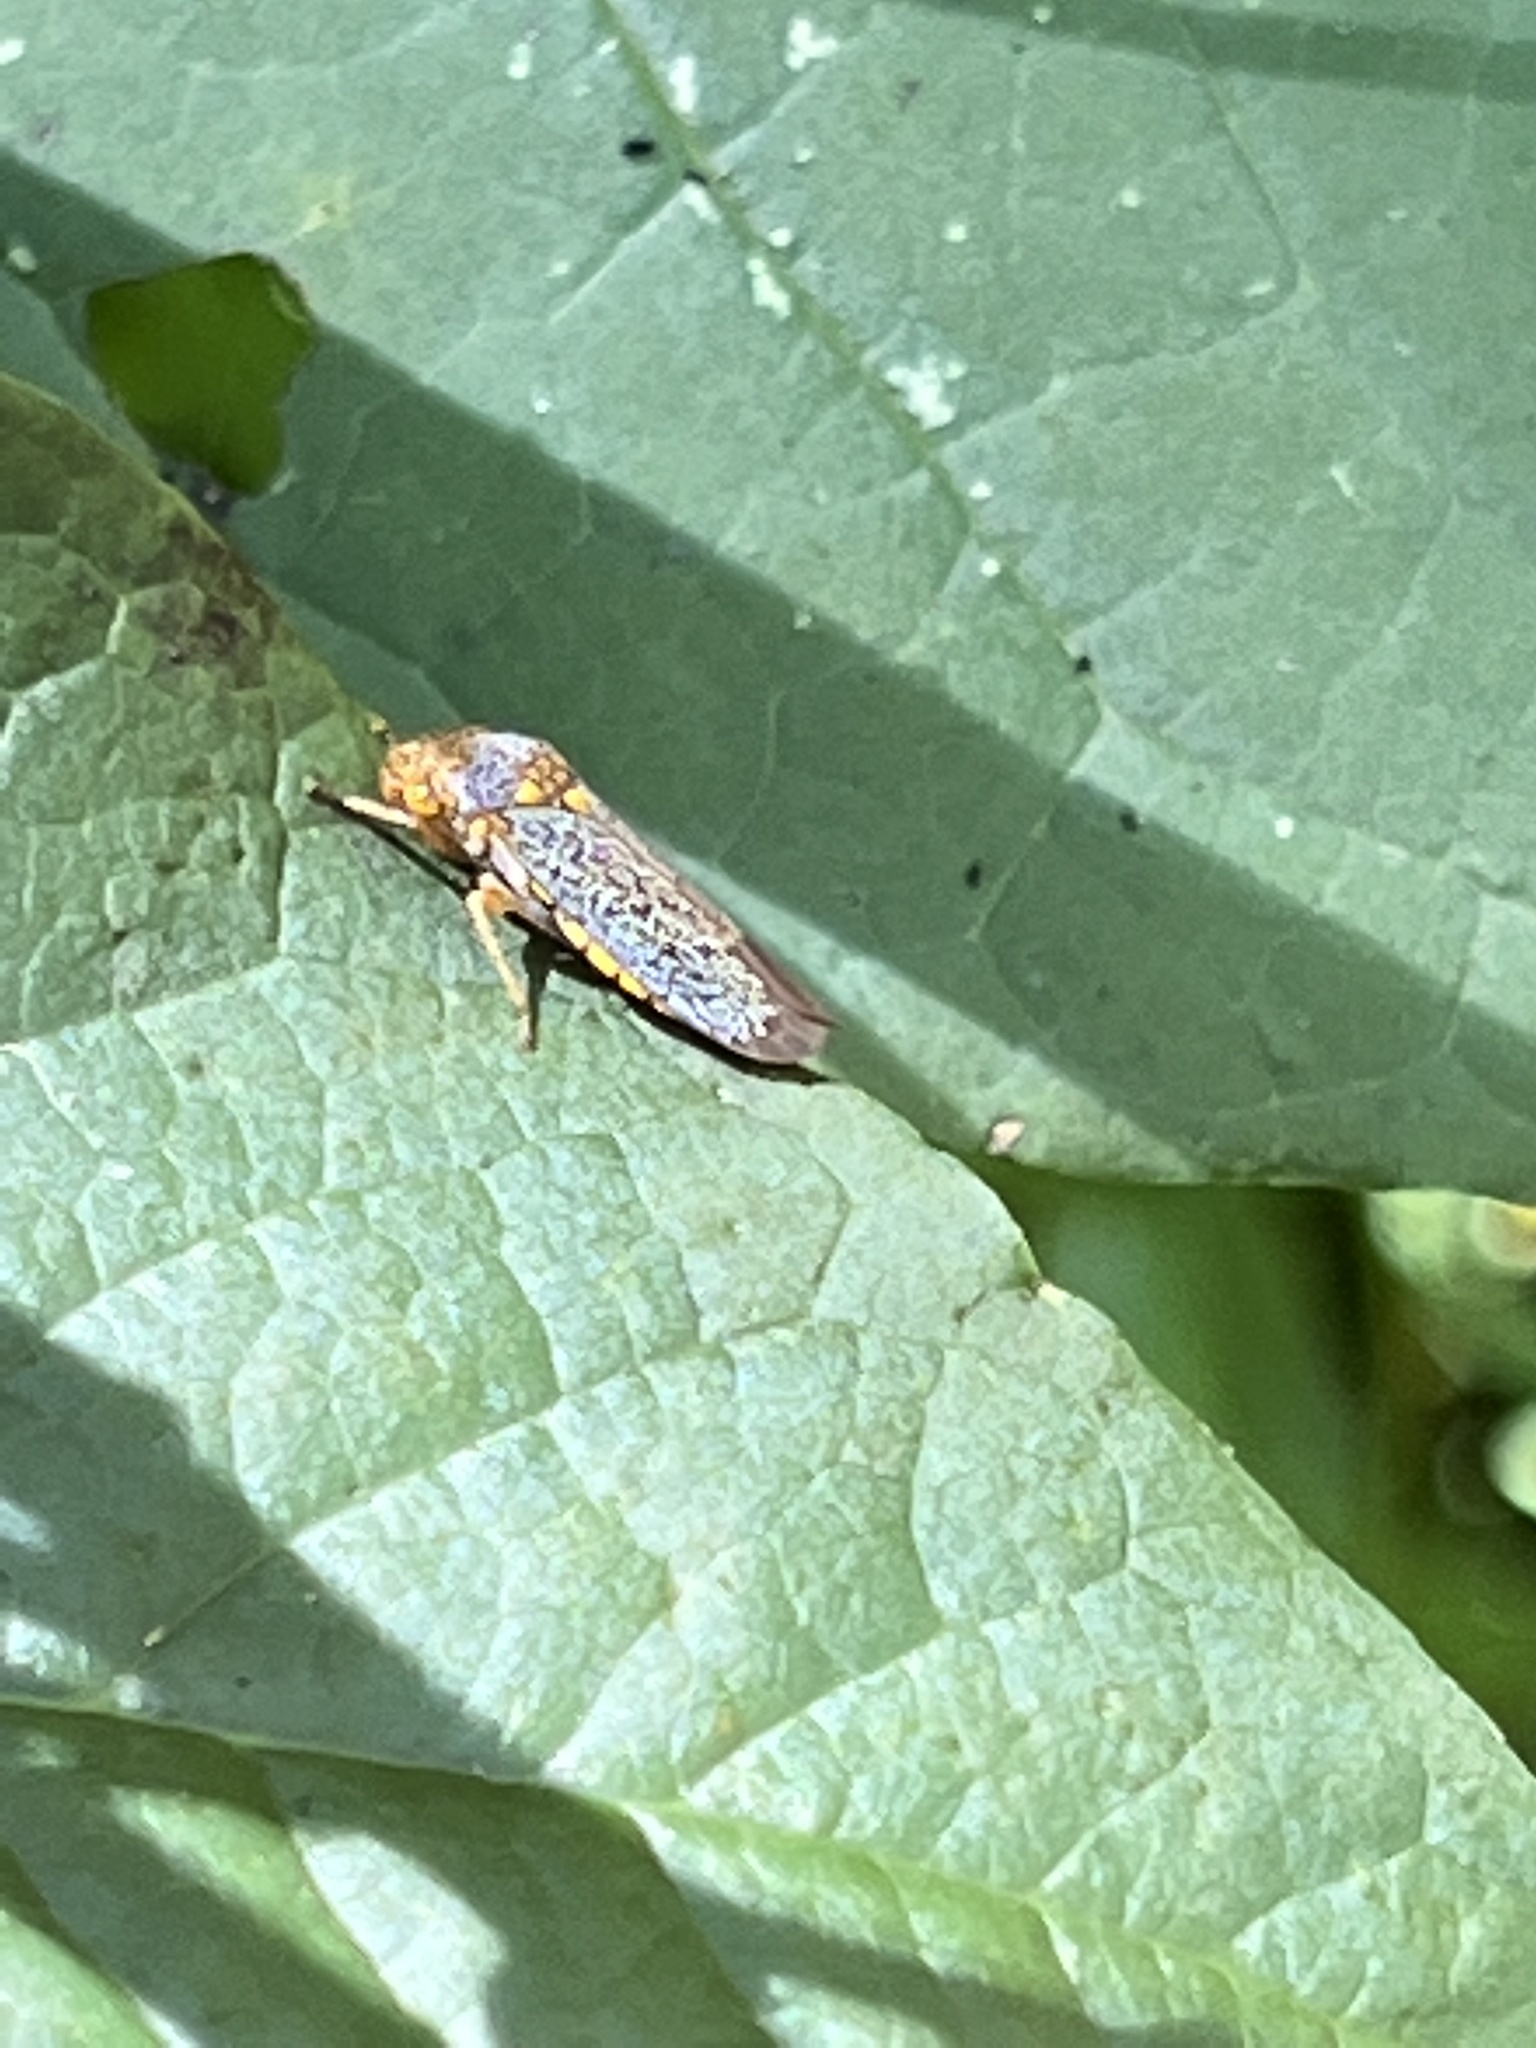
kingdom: Animalia
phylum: Arthropoda
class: Insecta
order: Hemiptera
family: Cicadellidae
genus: Oncometopia
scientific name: Oncometopia orbona
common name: Broad-headed sharpshooter
